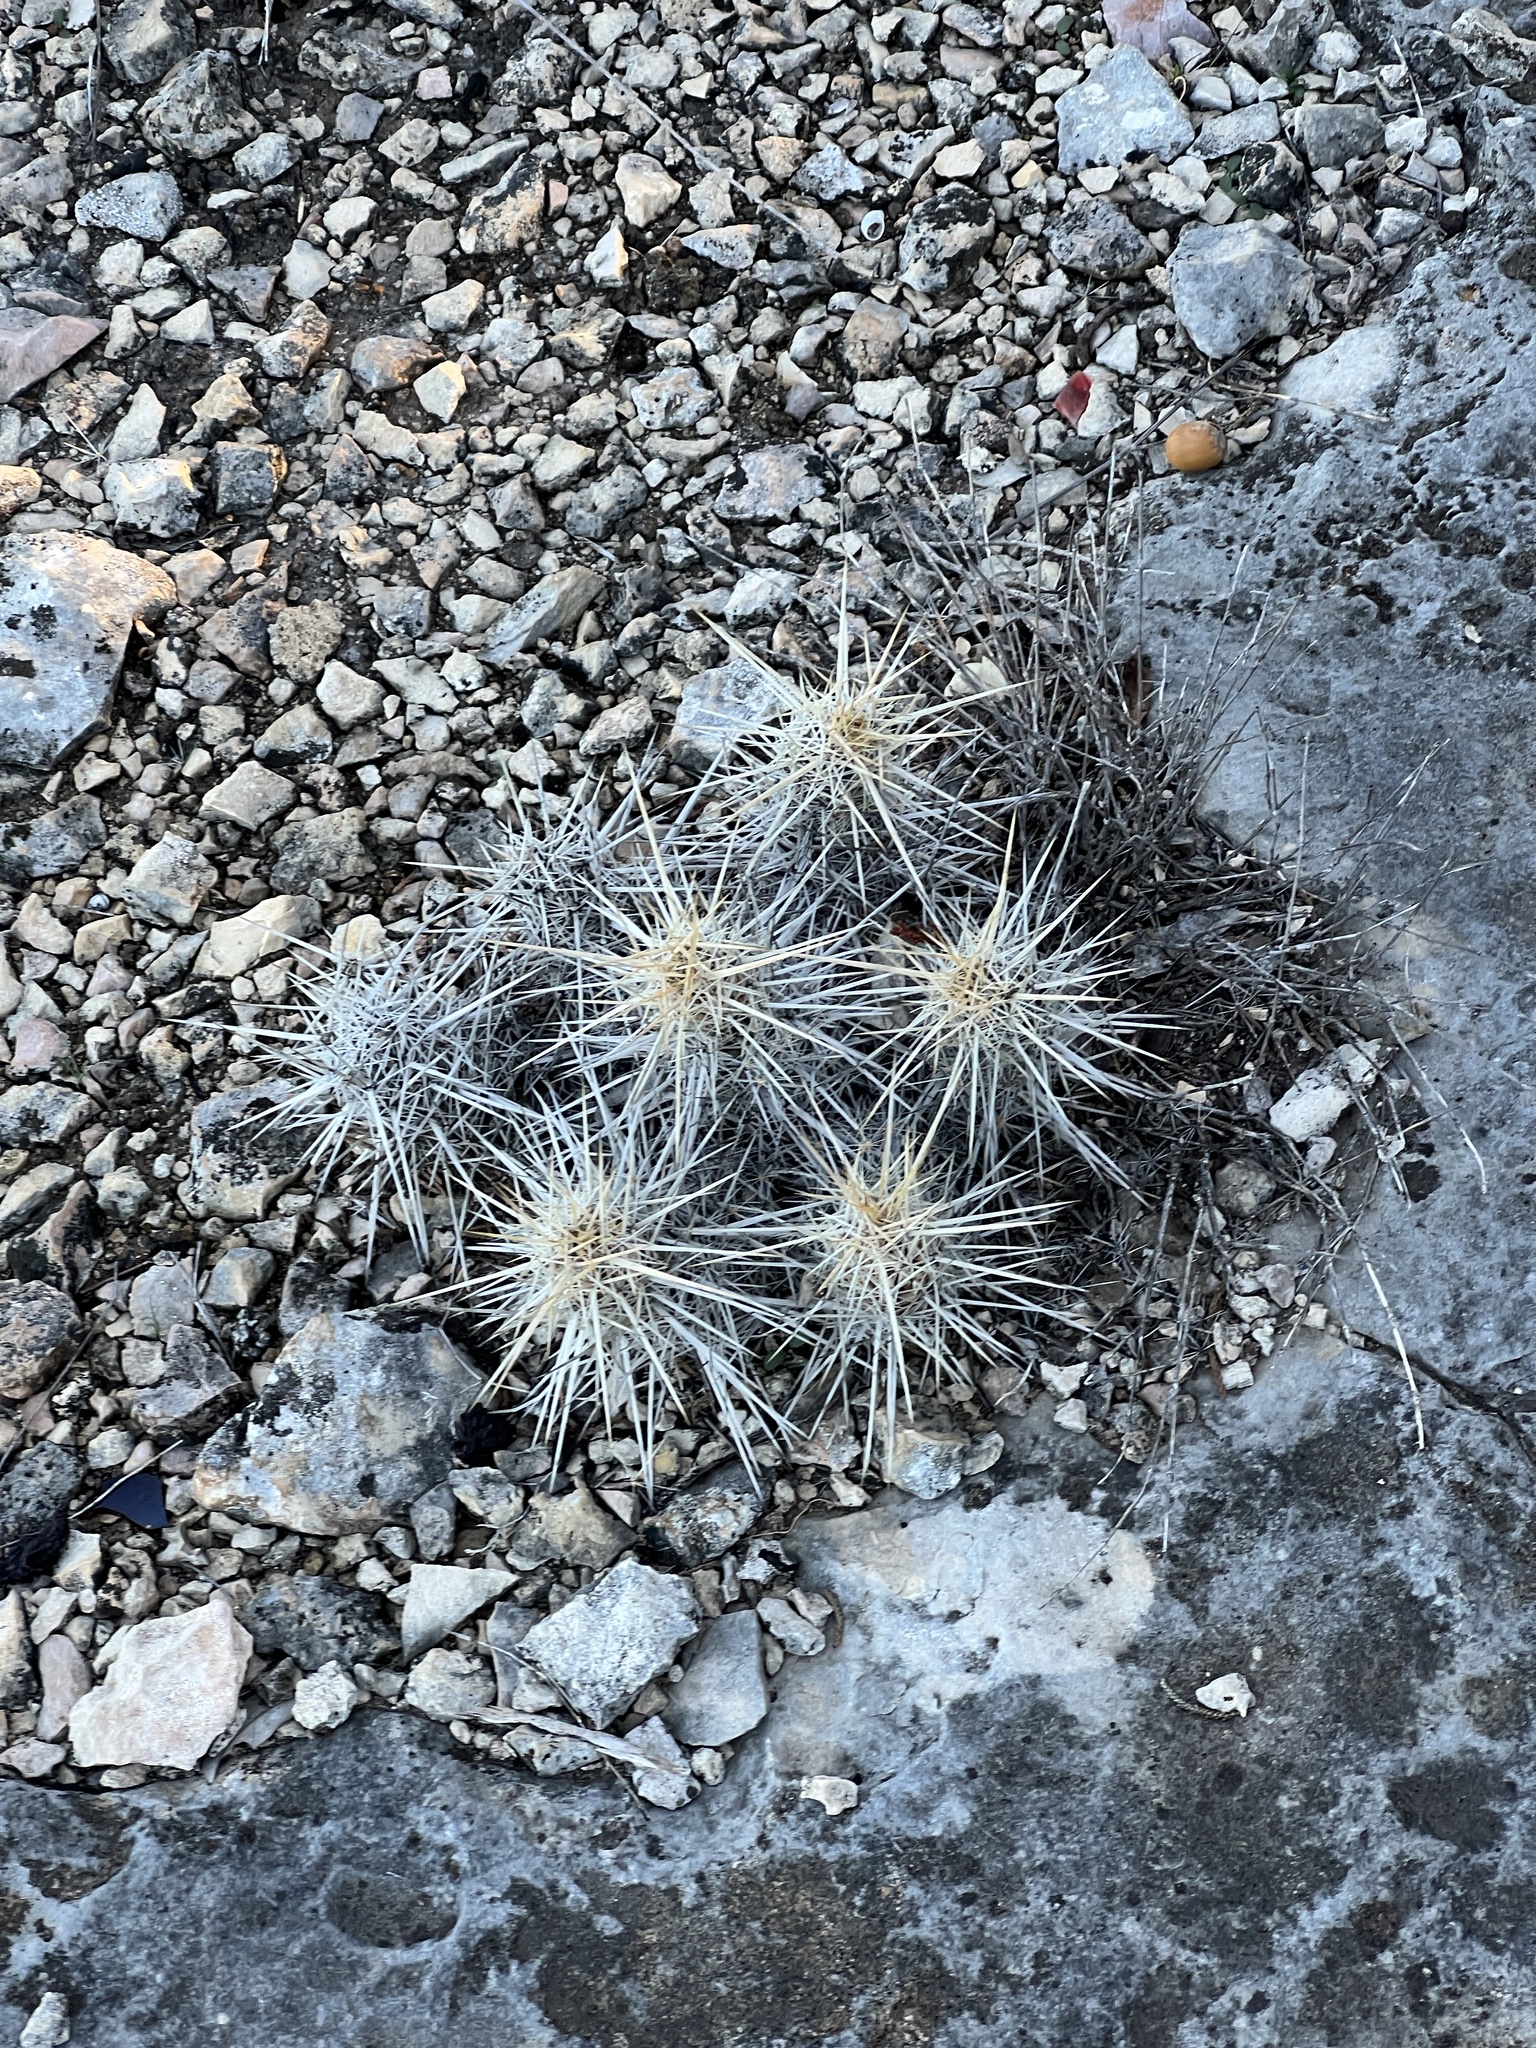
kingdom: Plantae
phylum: Tracheophyta
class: Magnoliopsida
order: Caryophyllales
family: Cactaceae
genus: Echinocereus
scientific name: Echinocereus enneacanthus
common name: Pitaya
